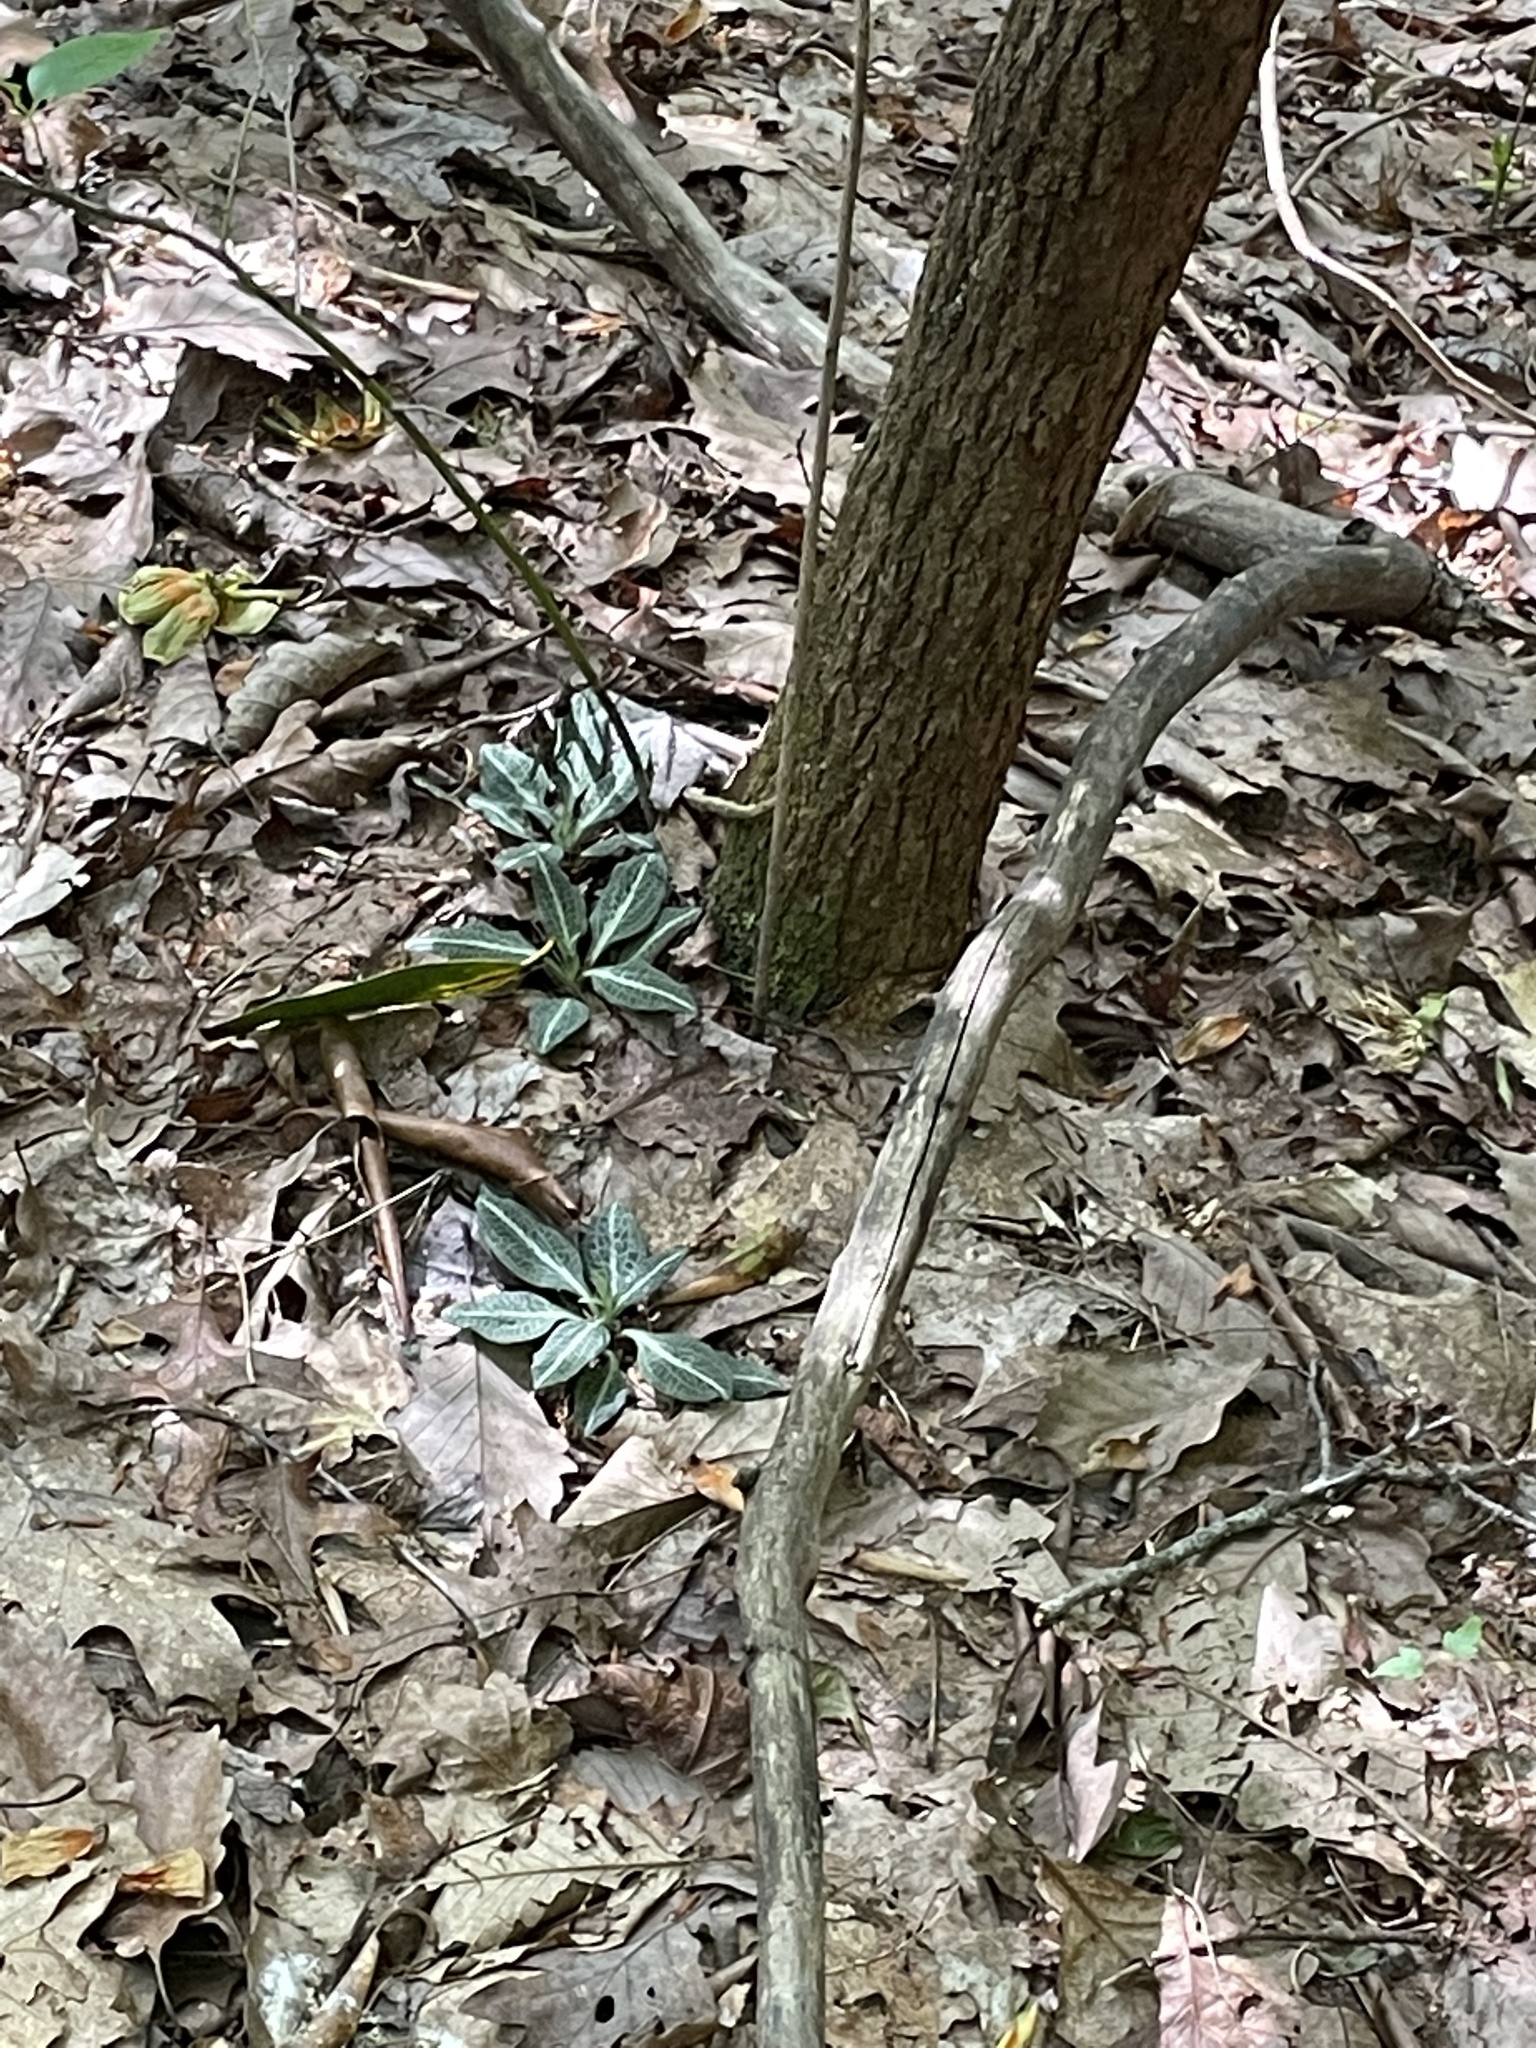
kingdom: Plantae
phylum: Tracheophyta
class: Liliopsida
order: Asparagales
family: Orchidaceae
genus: Goodyera
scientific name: Goodyera pubescens
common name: Downy rattlesnake-plantain
